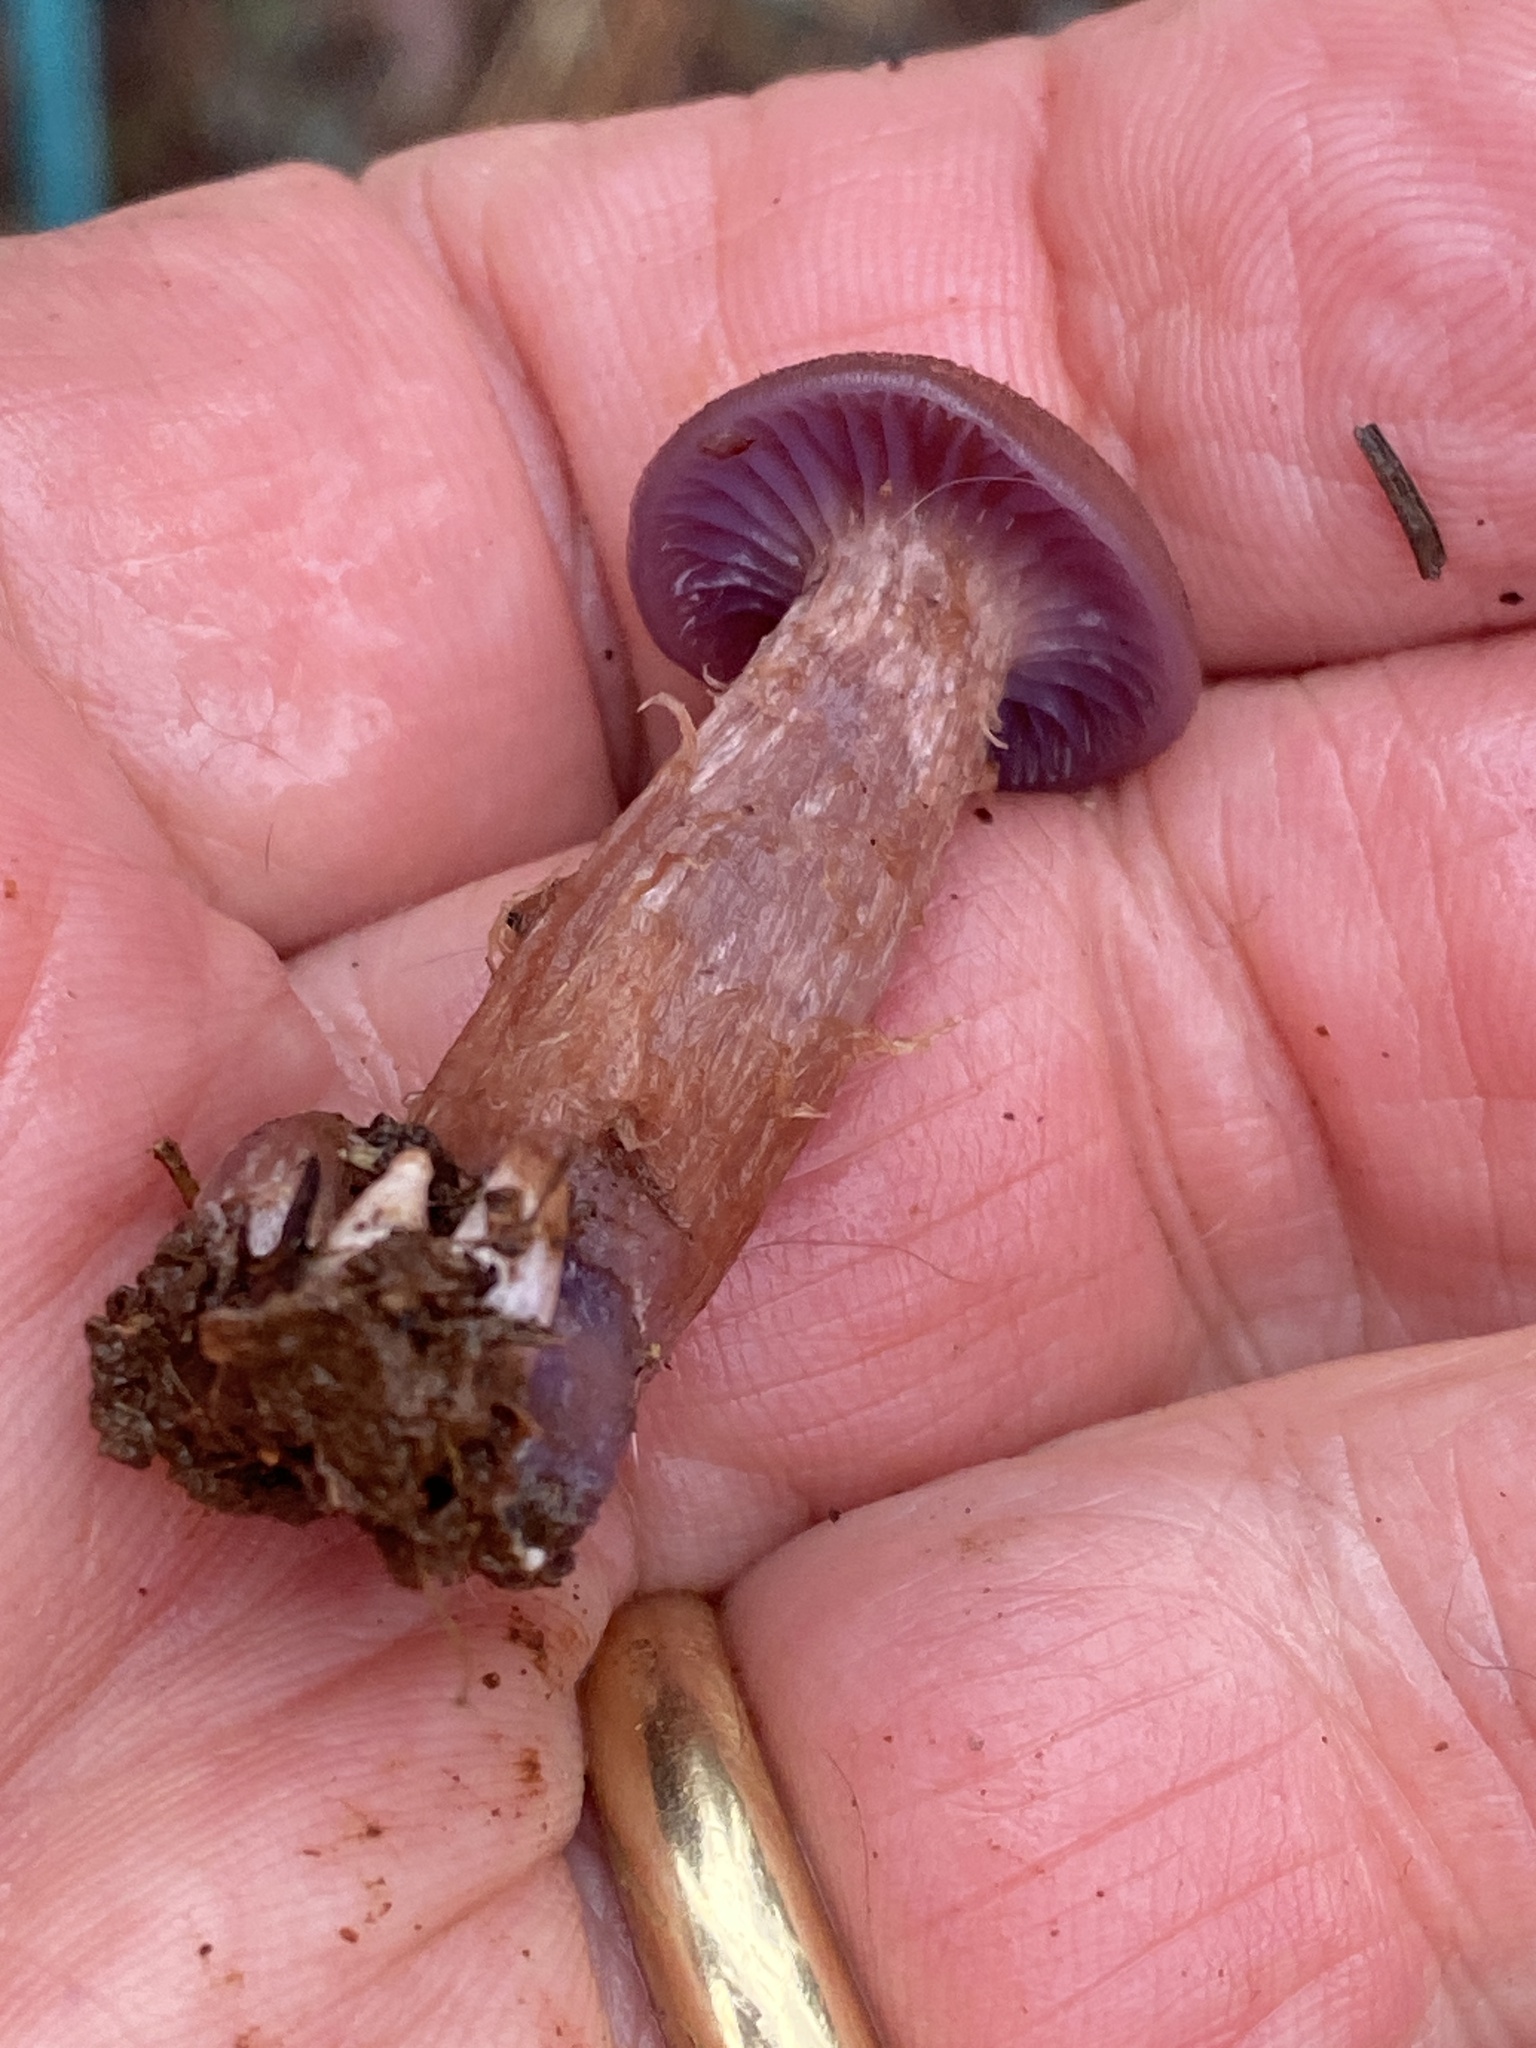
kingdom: Fungi
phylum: Basidiomycota
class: Agaricomycetes
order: Agaricales
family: Hydnangiaceae
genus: Laccaria
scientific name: Laccaria amethysteo-occidentalis
